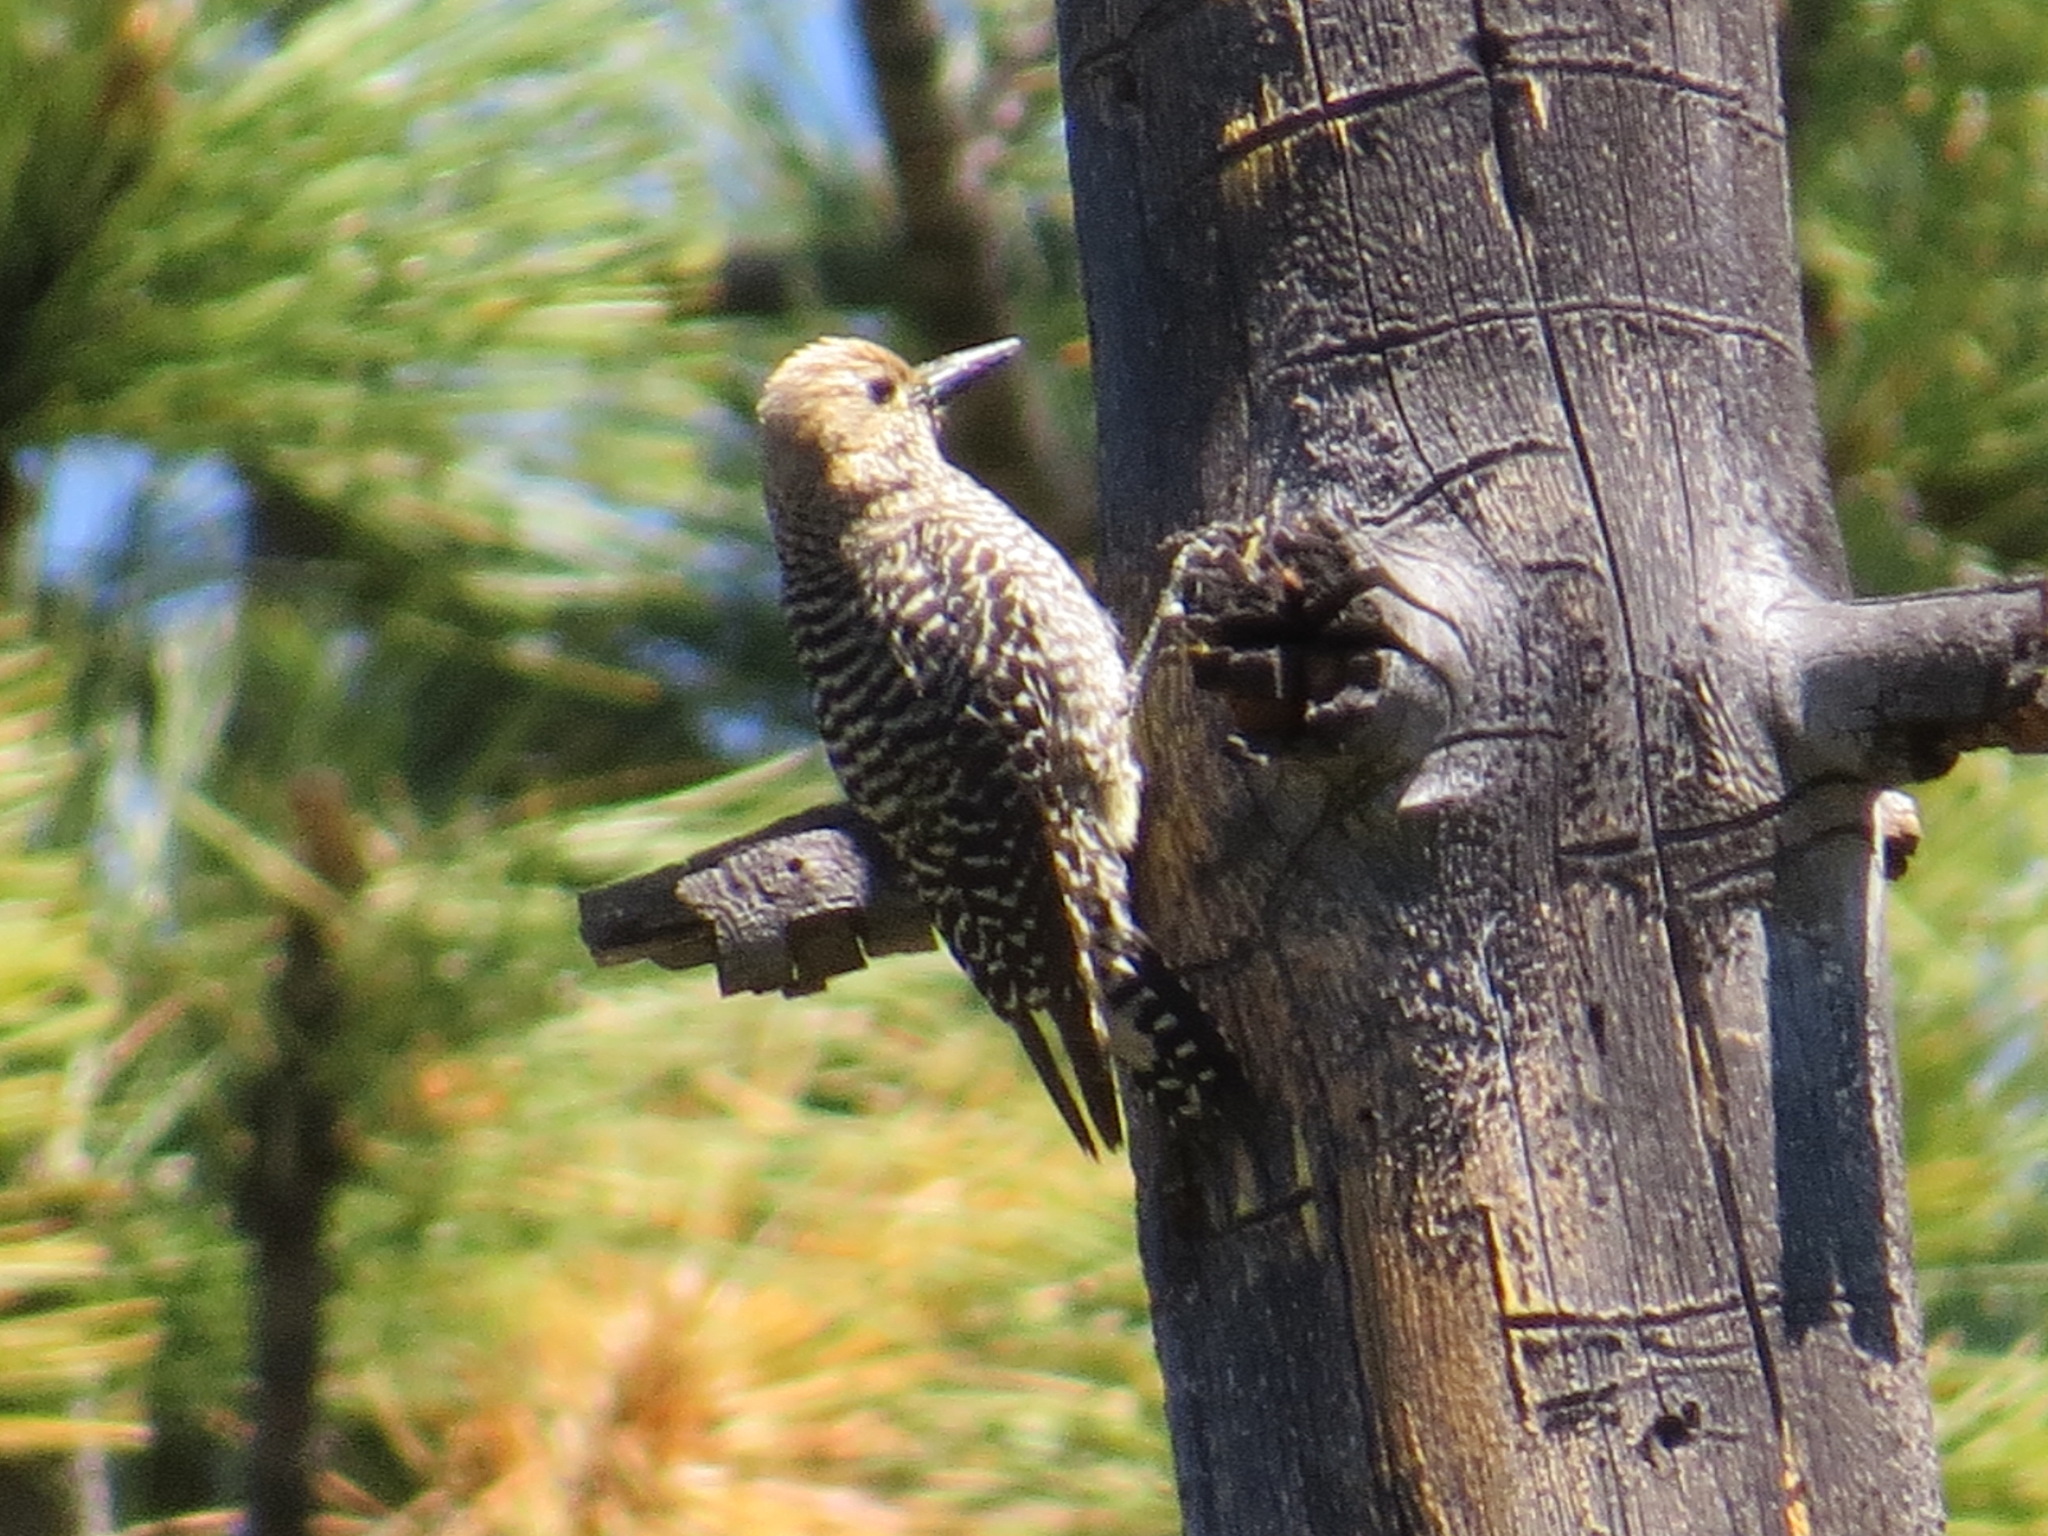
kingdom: Animalia
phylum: Chordata
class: Aves
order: Piciformes
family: Picidae
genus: Sphyrapicus
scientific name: Sphyrapicus thyroideus
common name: Williamson's sapsucker
